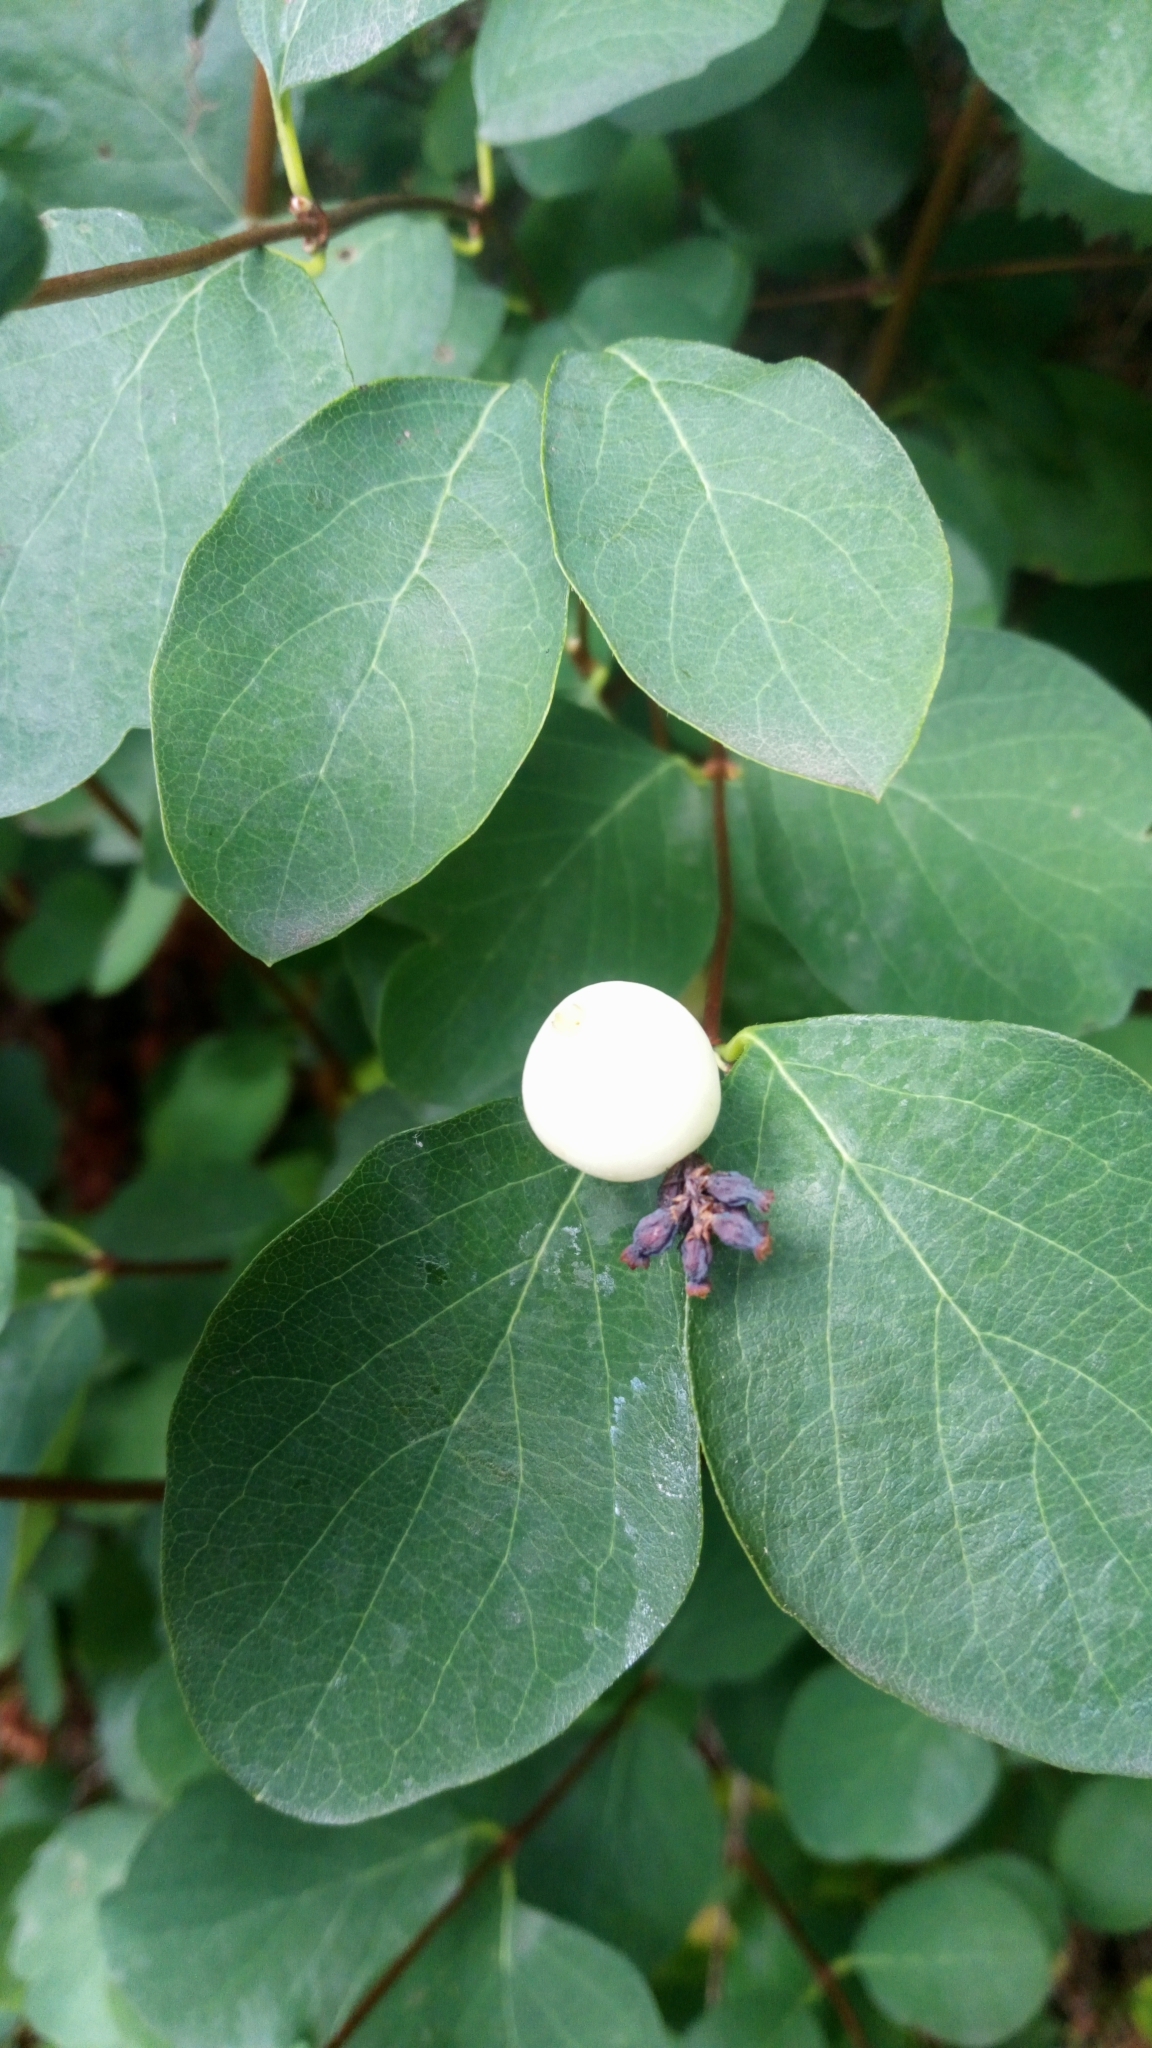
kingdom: Plantae
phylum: Tracheophyta
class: Magnoliopsida
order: Dipsacales
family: Caprifoliaceae
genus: Symphoricarpos
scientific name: Symphoricarpos albus
